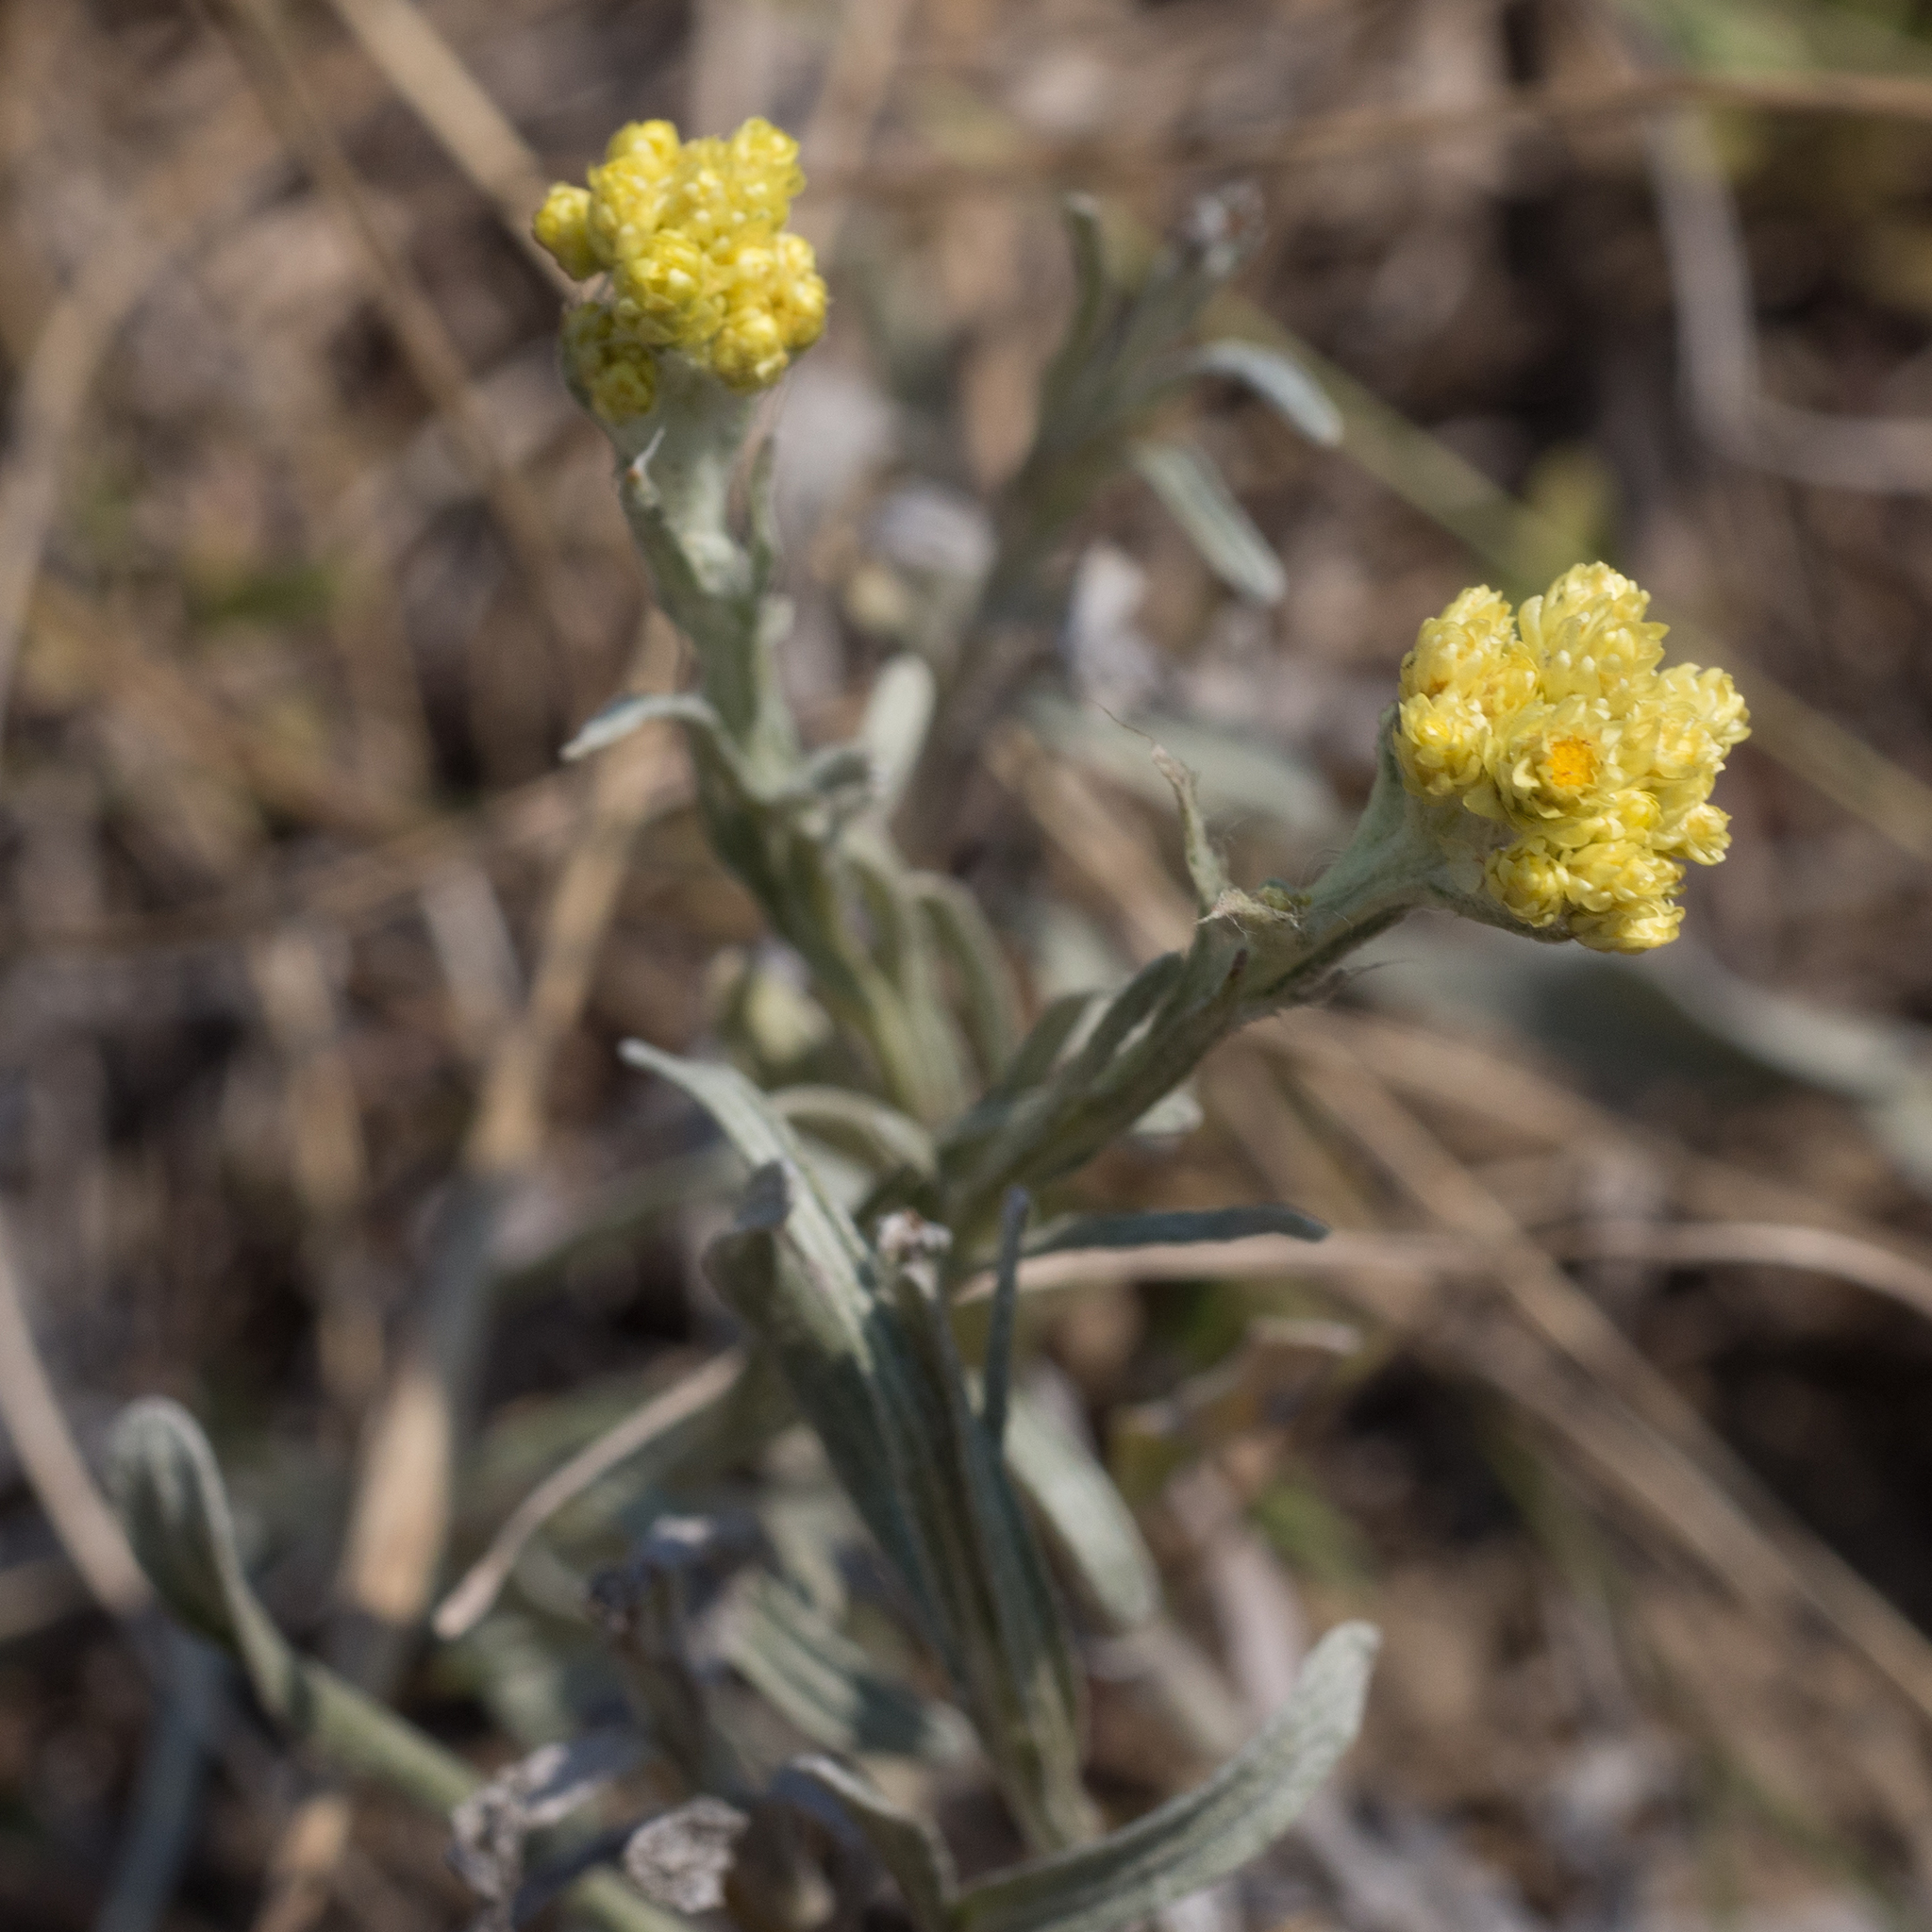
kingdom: Plantae
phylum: Tracheophyta
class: Magnoliopsida
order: Asterales
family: Asteraceae
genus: Helichrysum
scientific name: Helichrysum arenarium
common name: Strawflower
